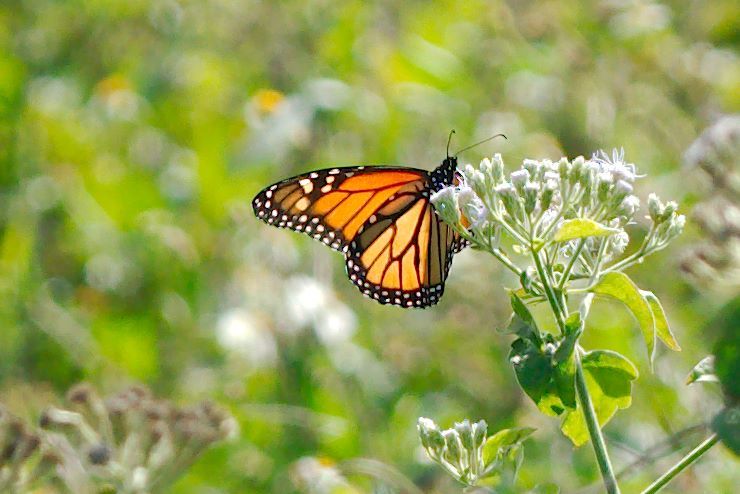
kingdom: Animalia
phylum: Arthropoda
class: Insecta
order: Lepidoptera
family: Nymphalidae
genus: Danaus
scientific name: Danaus plexippus
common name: Monarch
